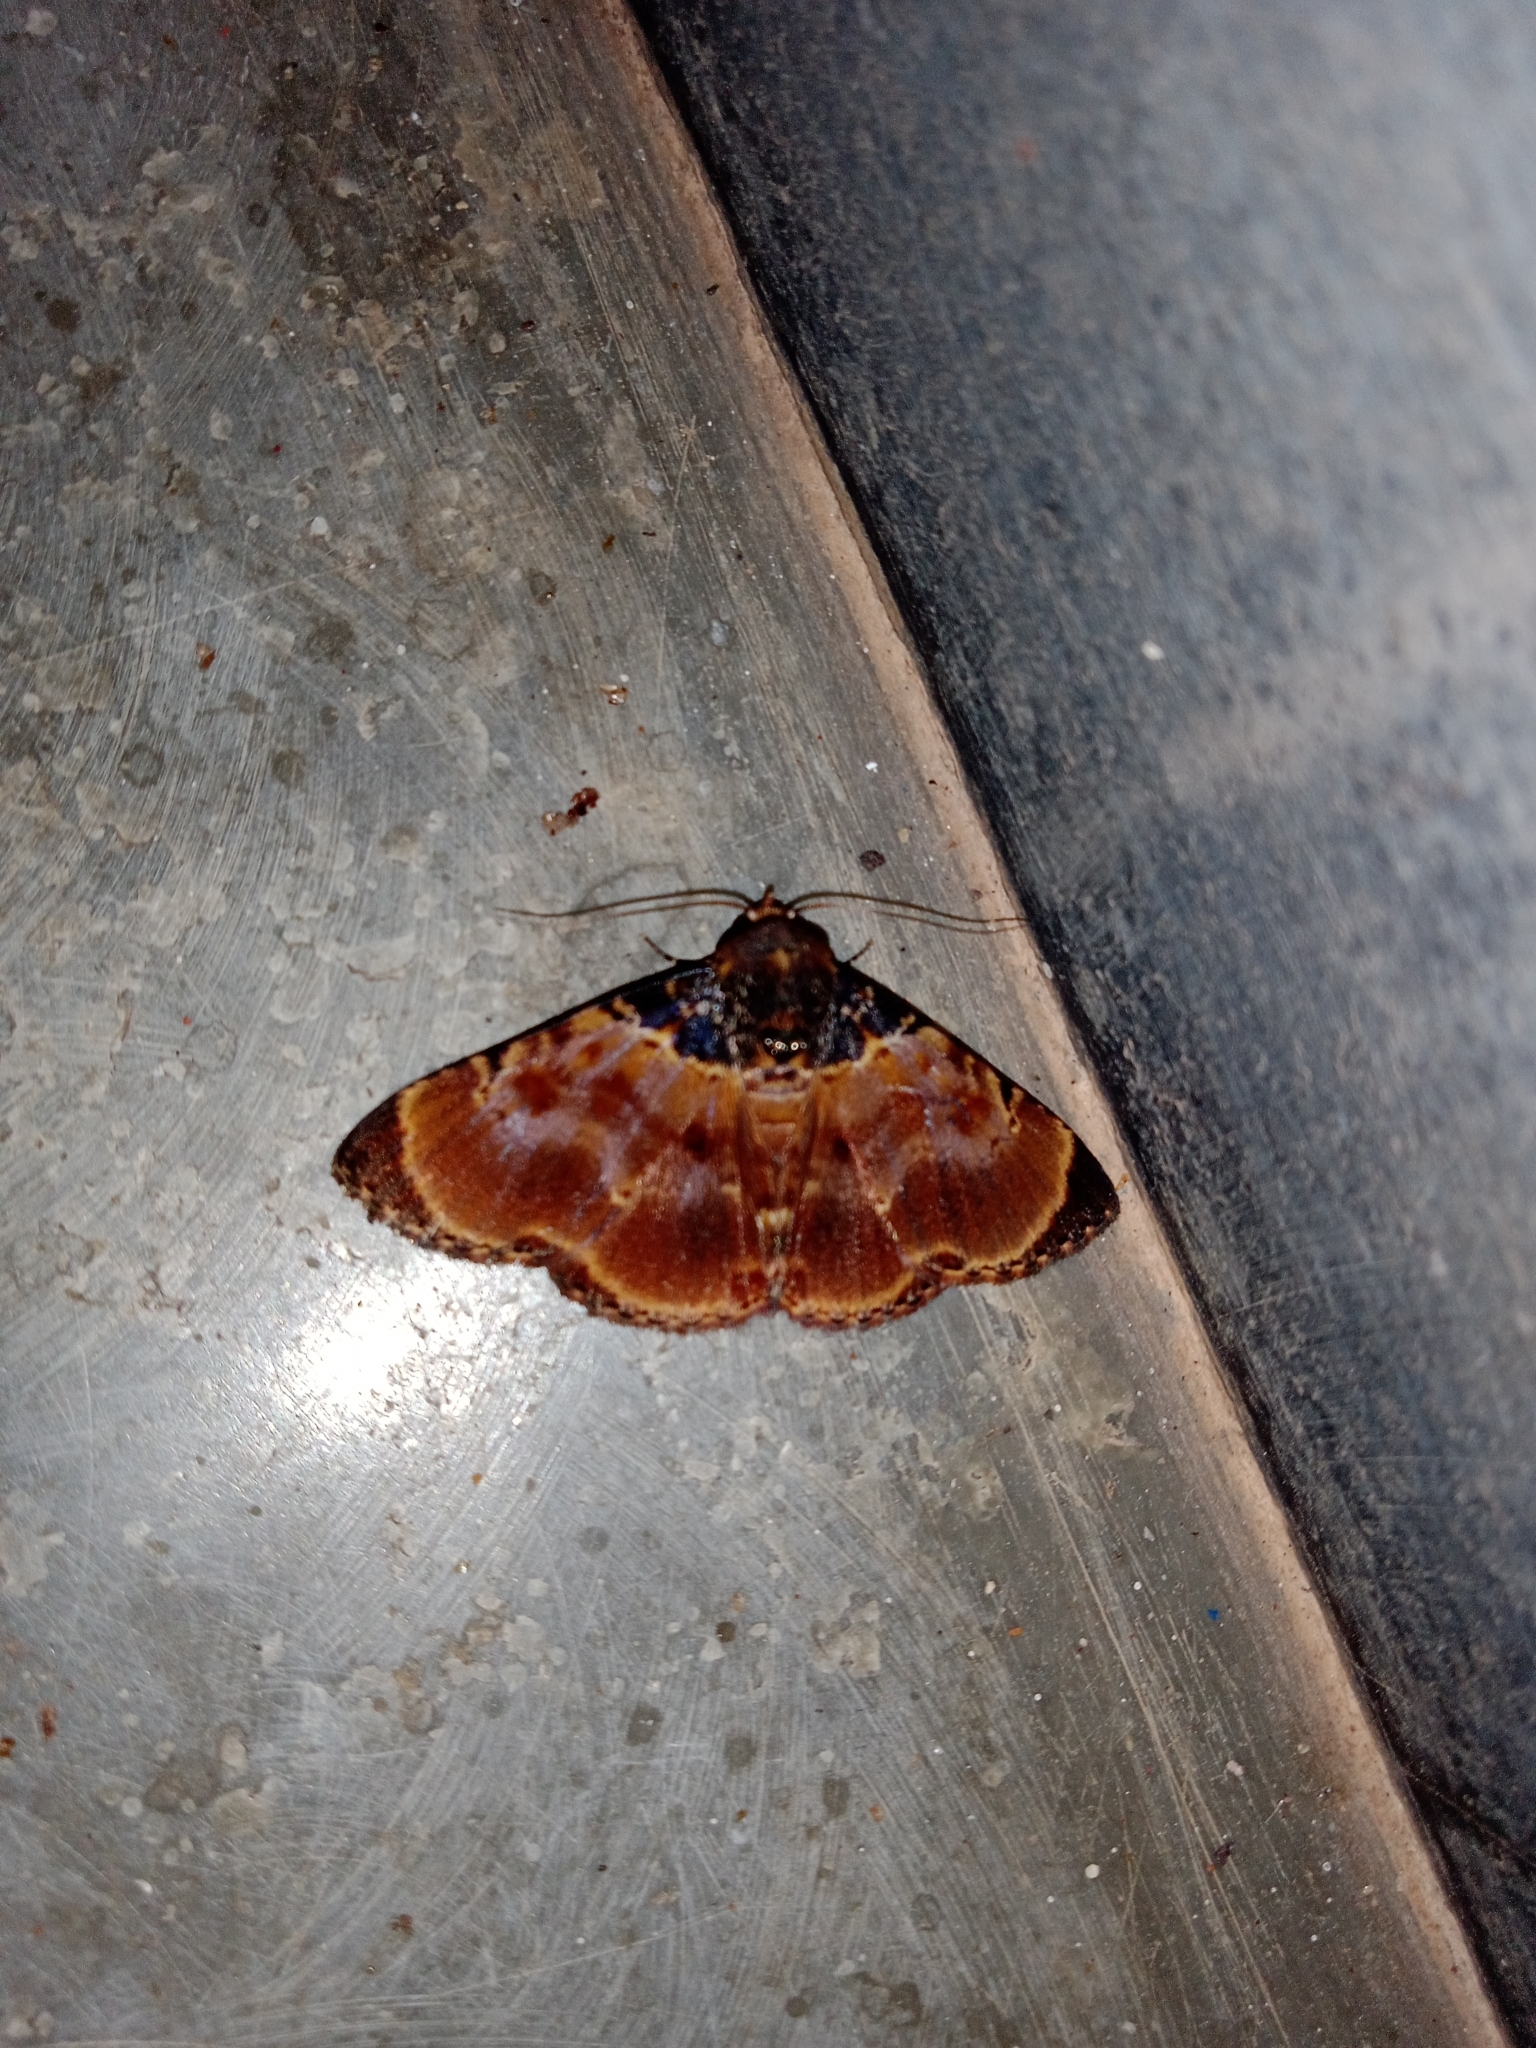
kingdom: Animalia
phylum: Arthropoda
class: Insecta
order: Lepidoptera
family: Erebidae
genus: Diomea
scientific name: Diomea lignicolora
